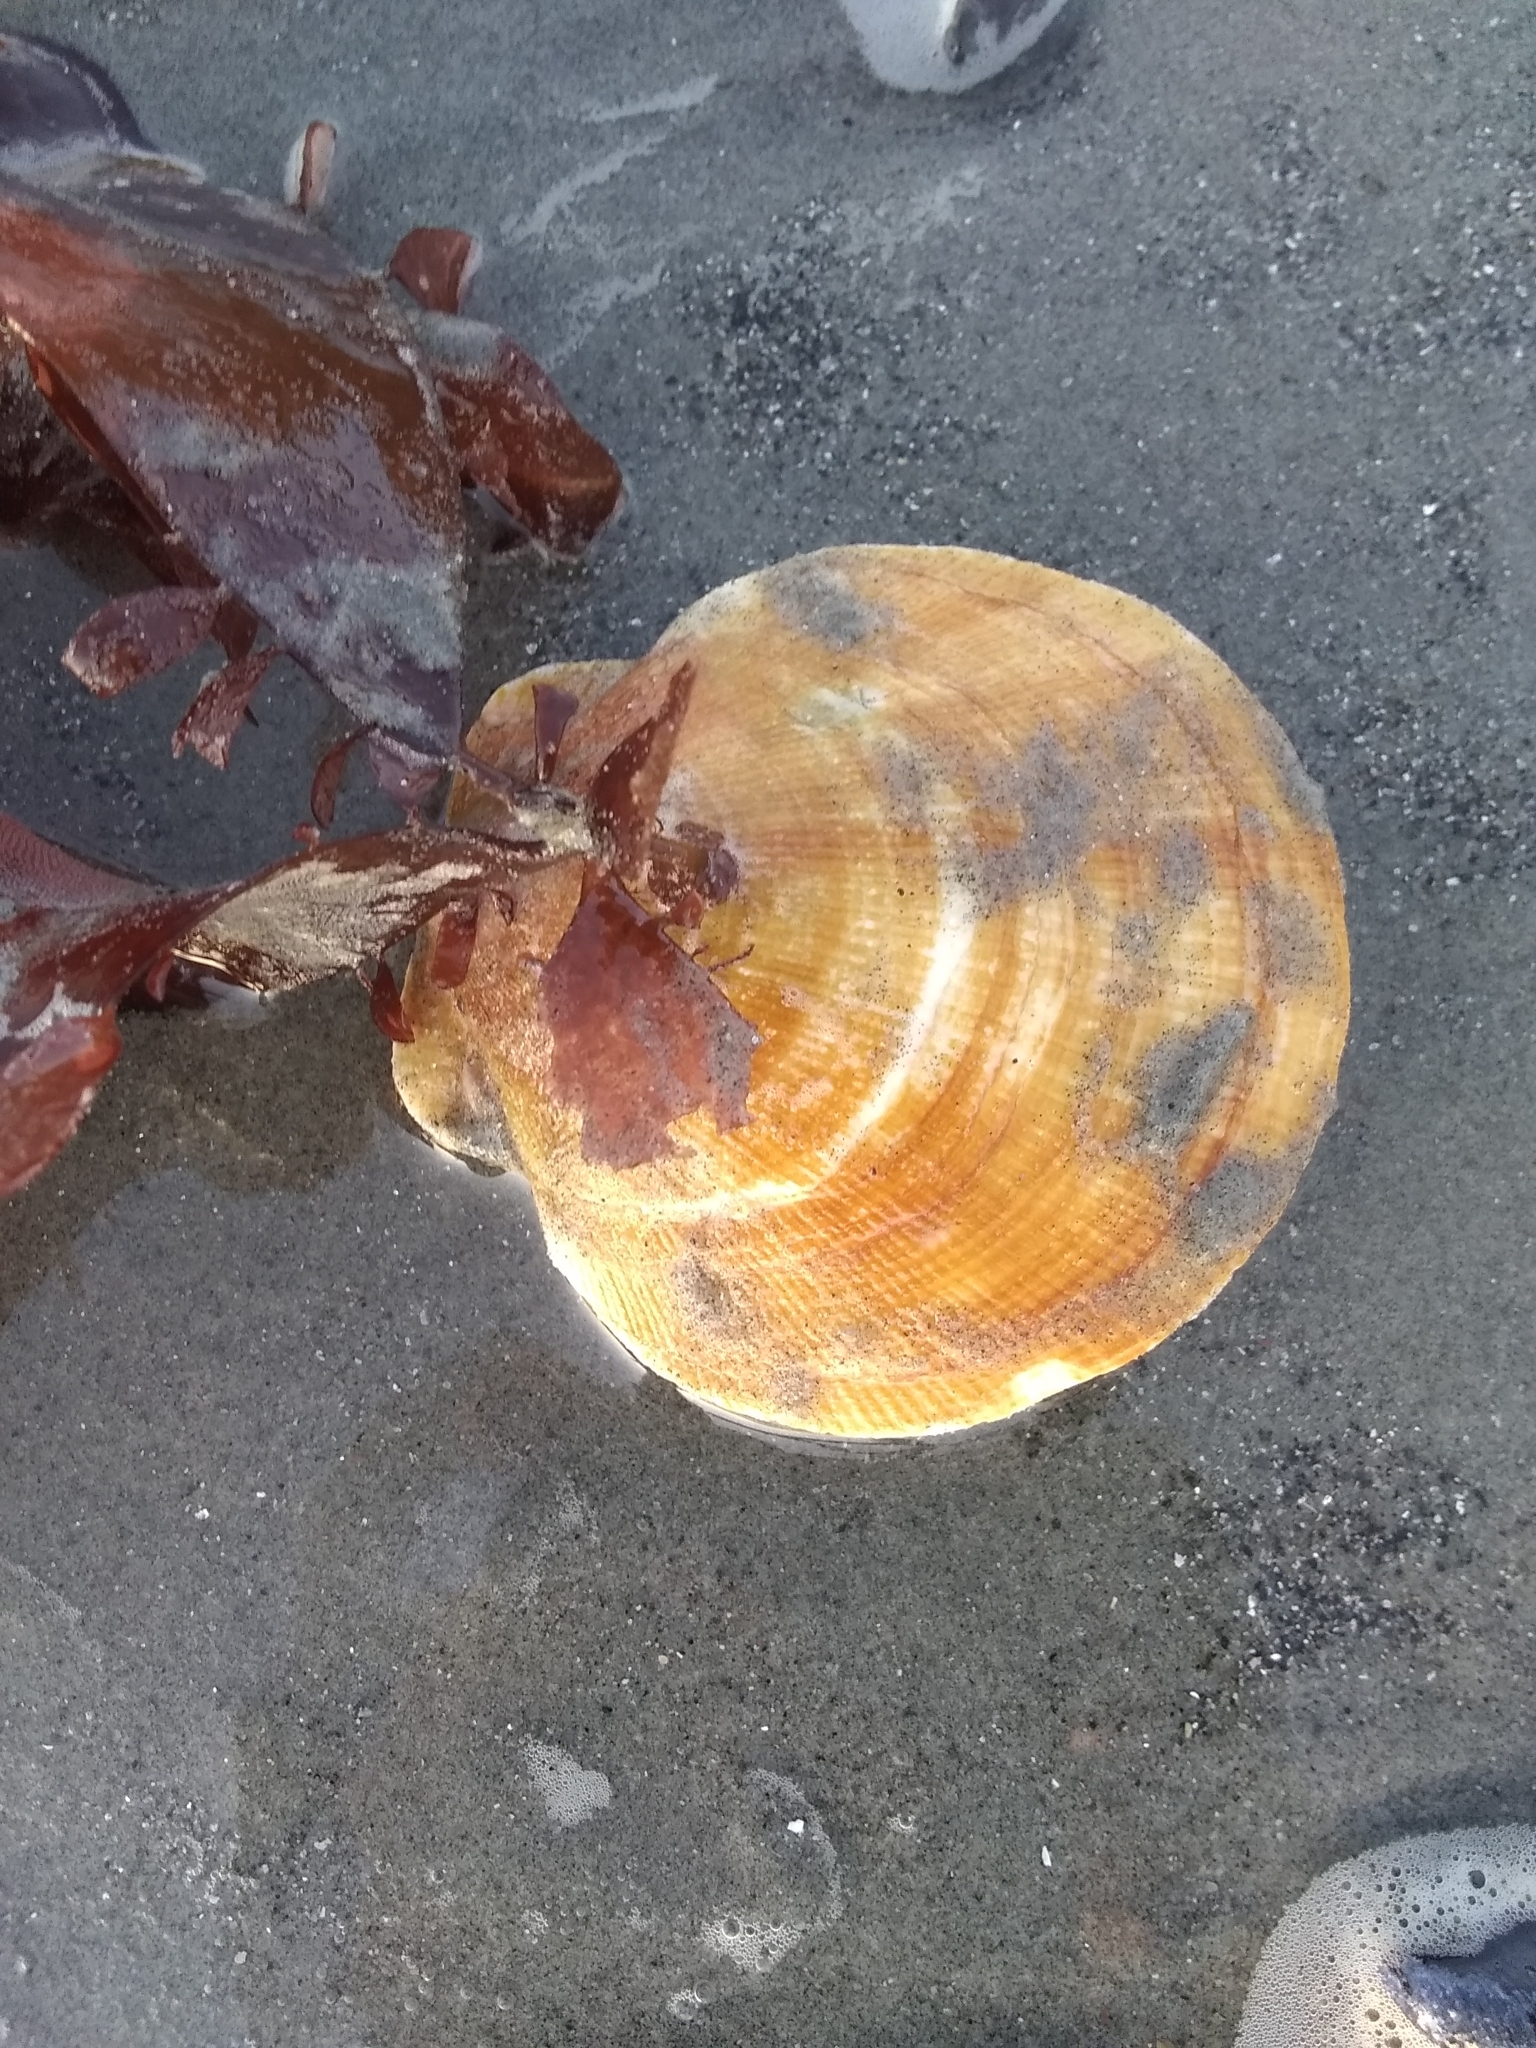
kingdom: Animalia
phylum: Mollusca
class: Bivalvia
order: Pectinida
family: Pectinidae
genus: Placopecten
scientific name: Placopecten magellanicus
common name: American sea scallop
